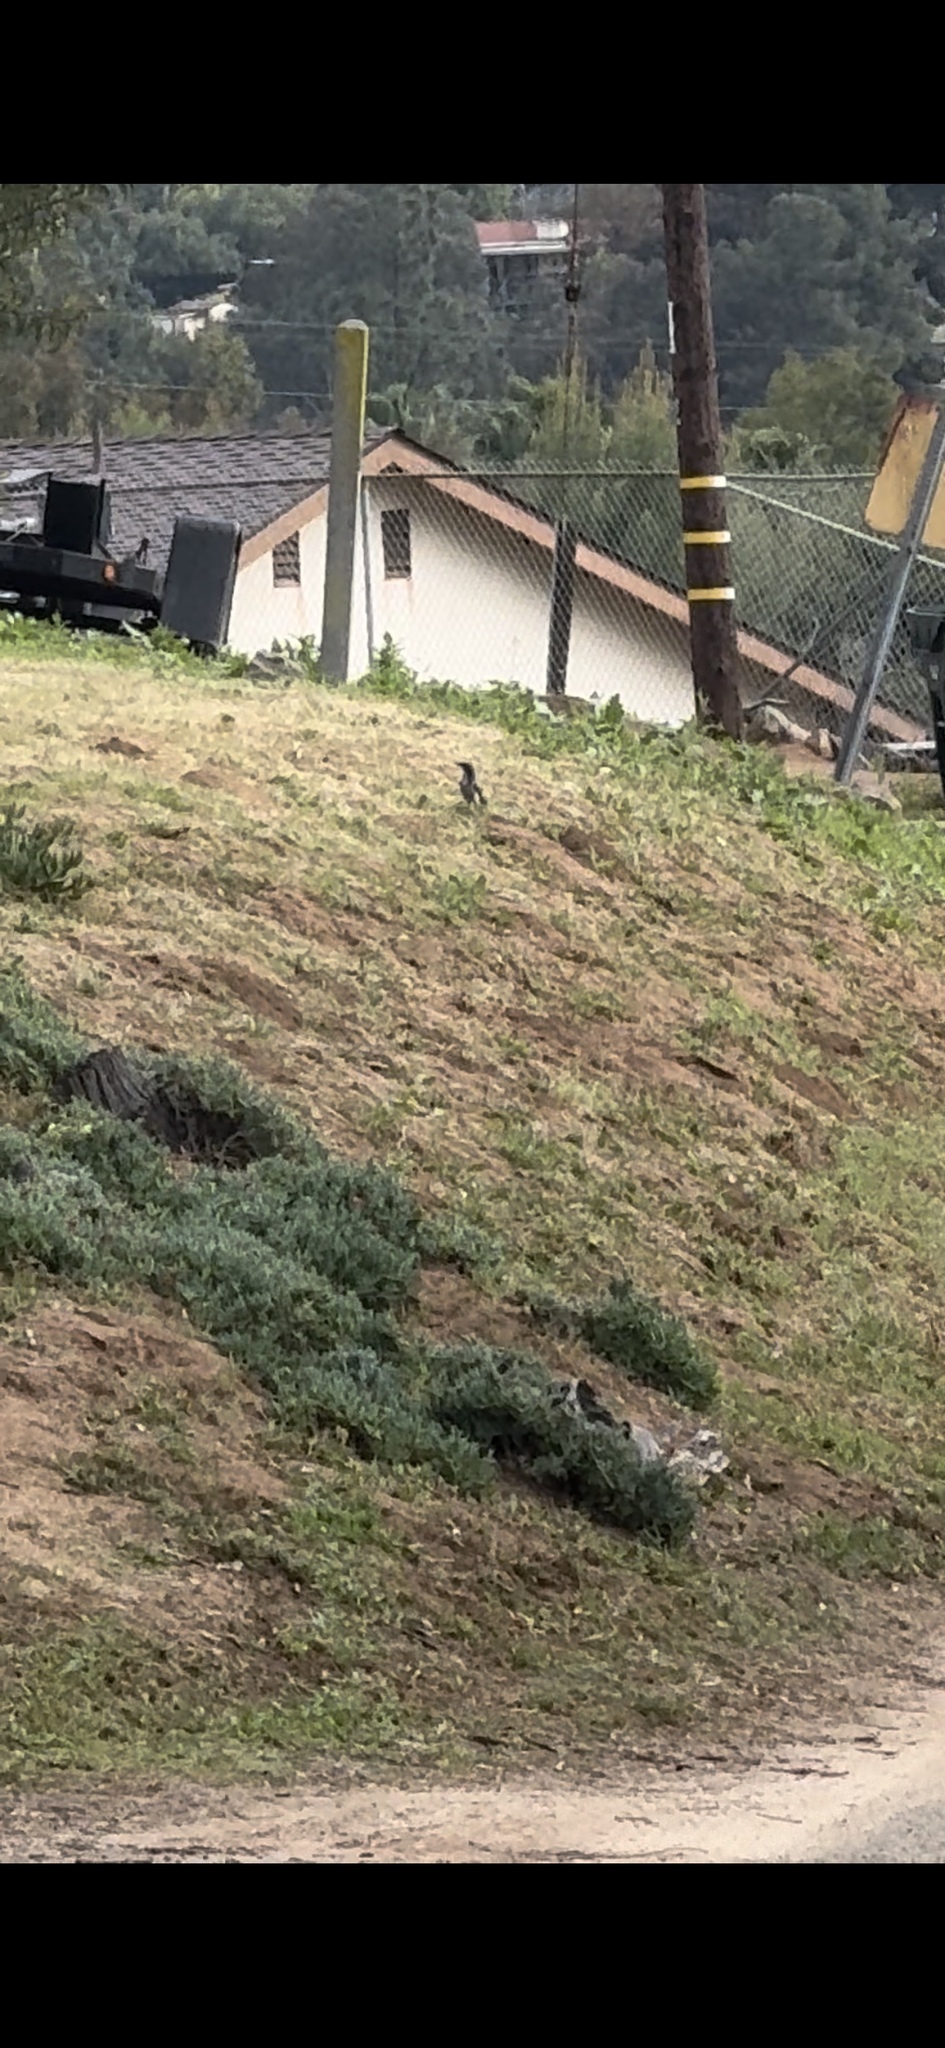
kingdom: Animalia
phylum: Chordata
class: Aves
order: Passeriformes
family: Corvidae
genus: Aphelocoma
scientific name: Aphelocoma californica
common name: California scrub-jay
